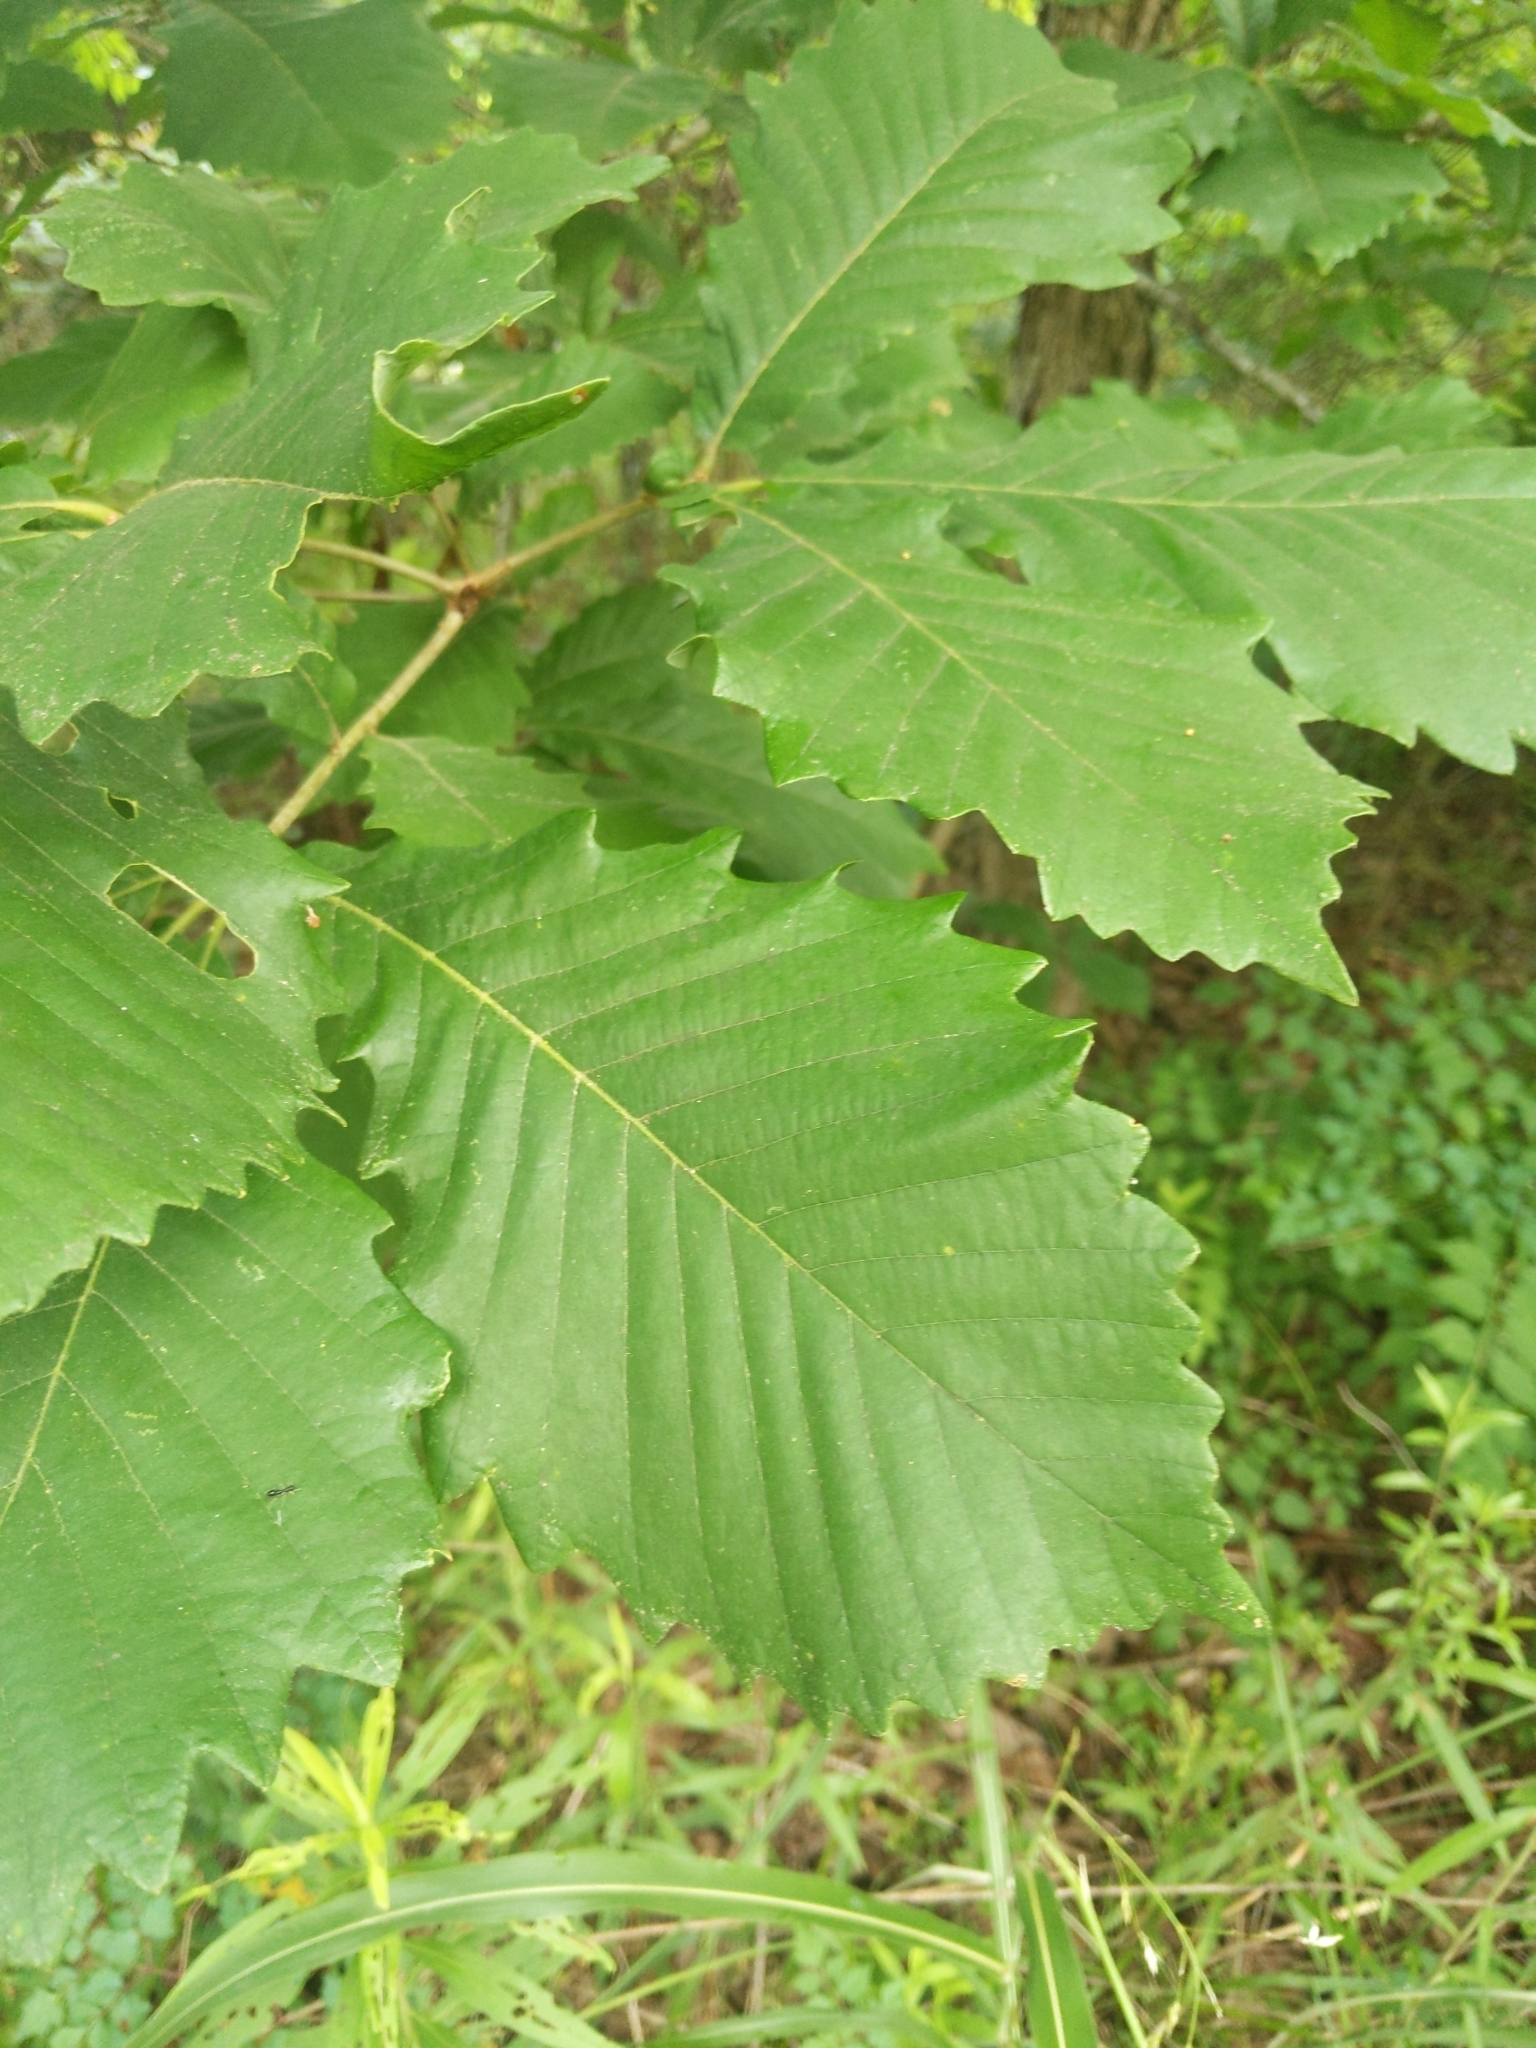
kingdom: Plantae
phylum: Tracheophyta
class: Magnoliopsida
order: Fagales
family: Fagaceae
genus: Quercus
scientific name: Quercus michauxii
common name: Swamp chestnut oak
